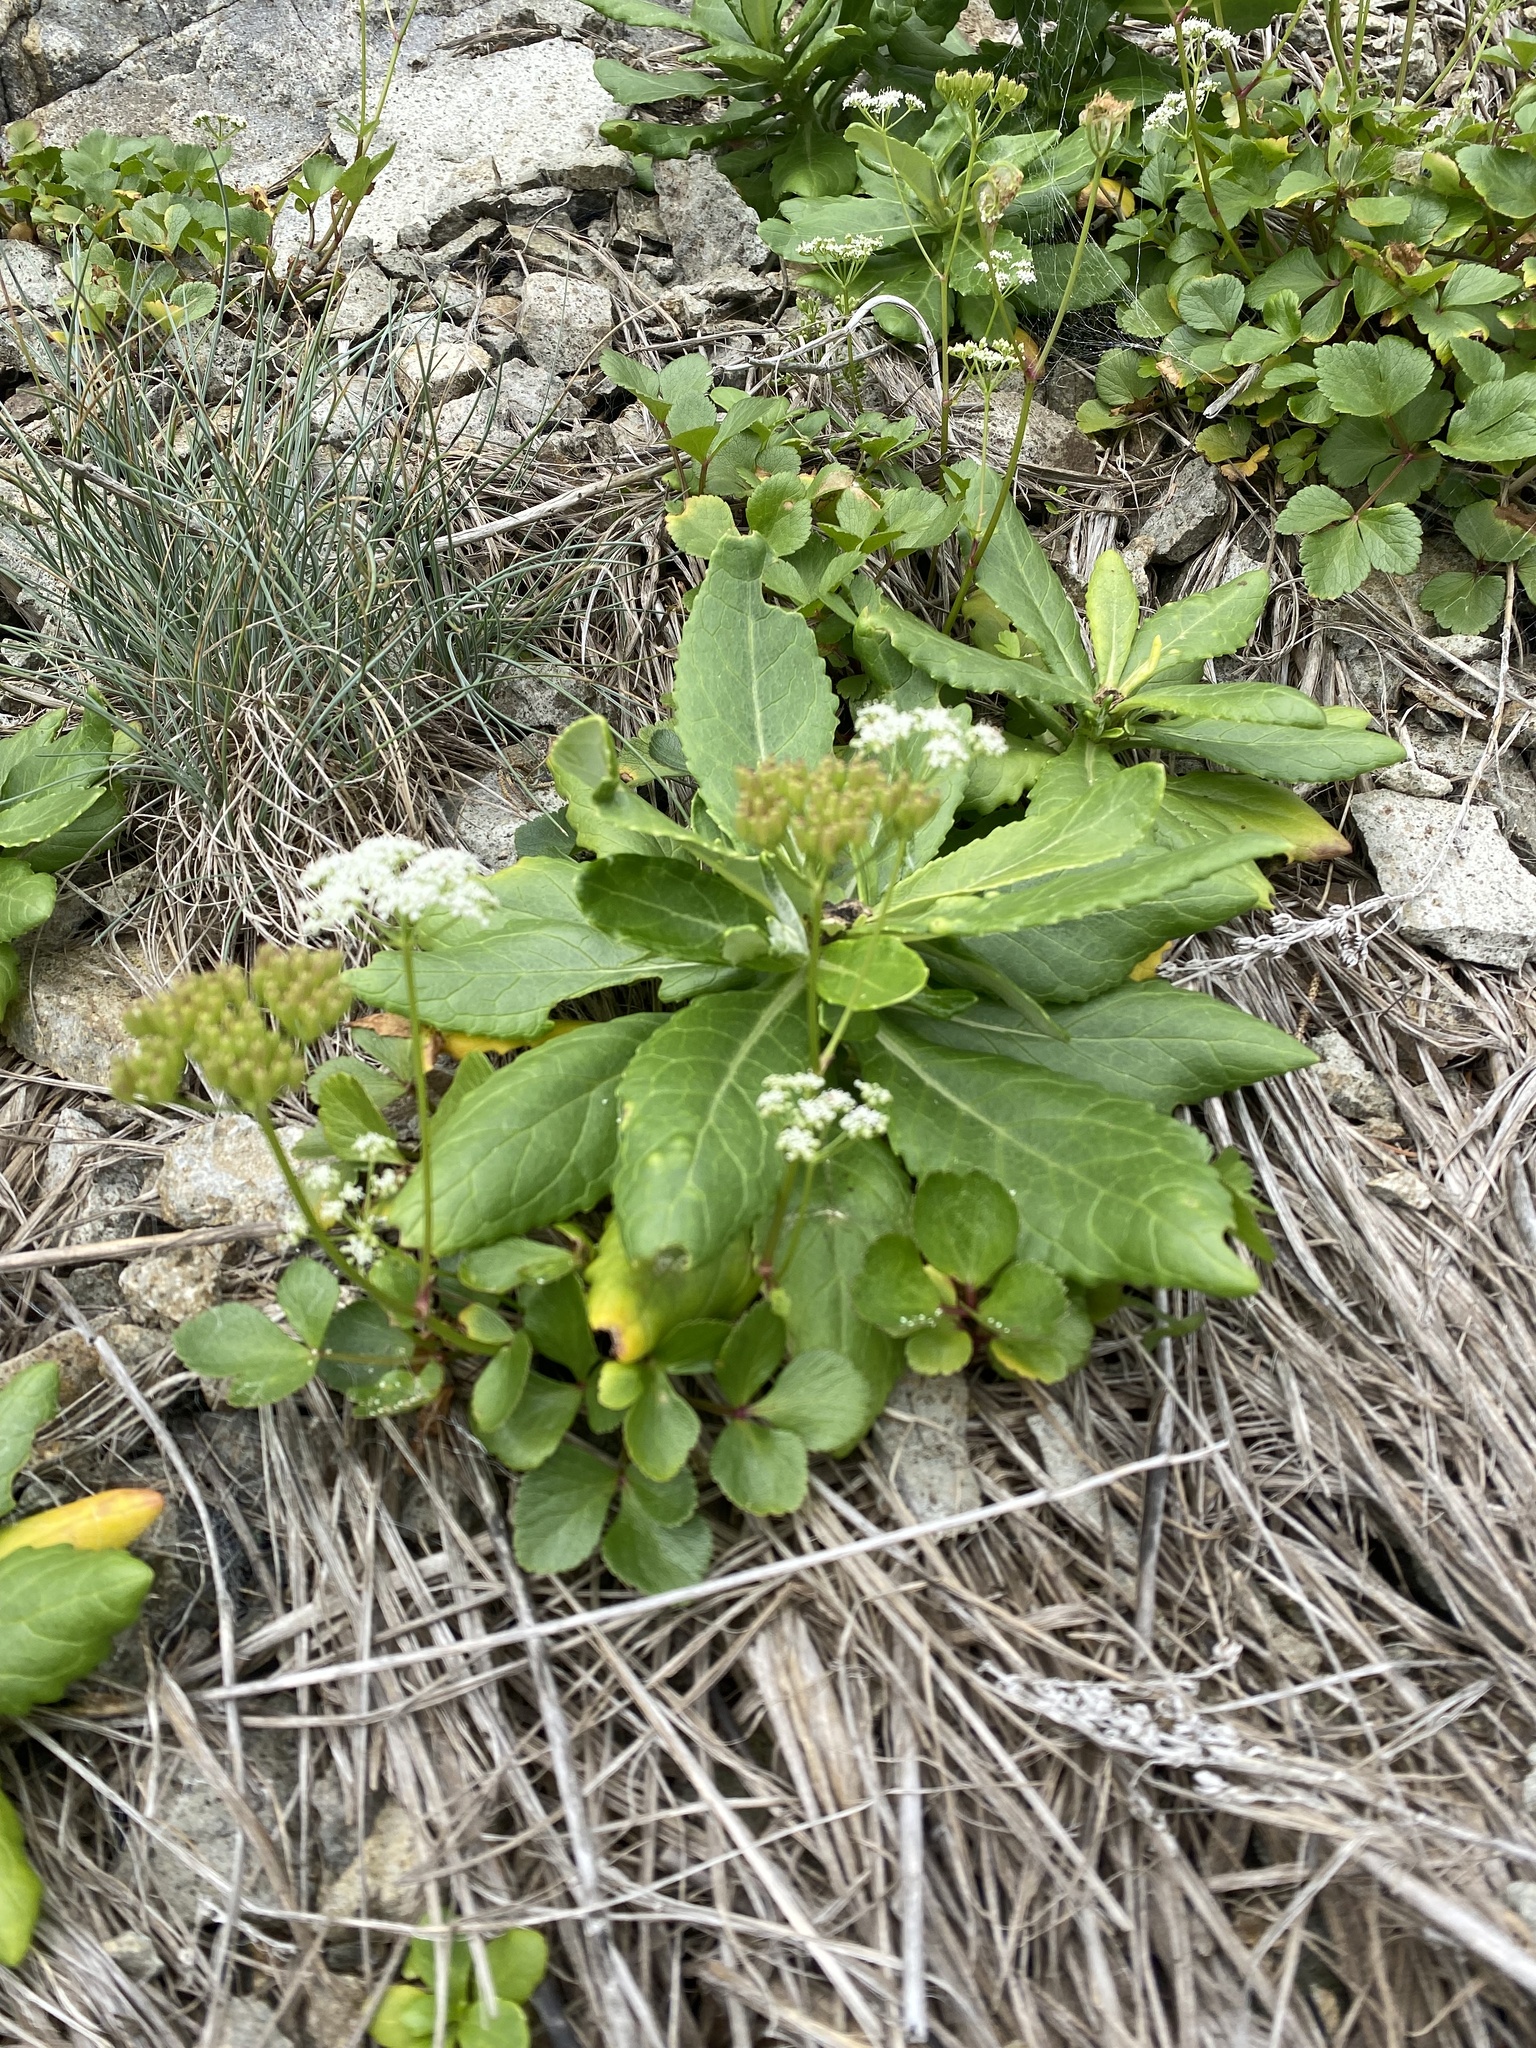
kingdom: Plantae
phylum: Tracheophyta
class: Magnoliopsida
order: Asterales
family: Asteraceae
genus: Jacobaea
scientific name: Jacobaea pseudoarnica
